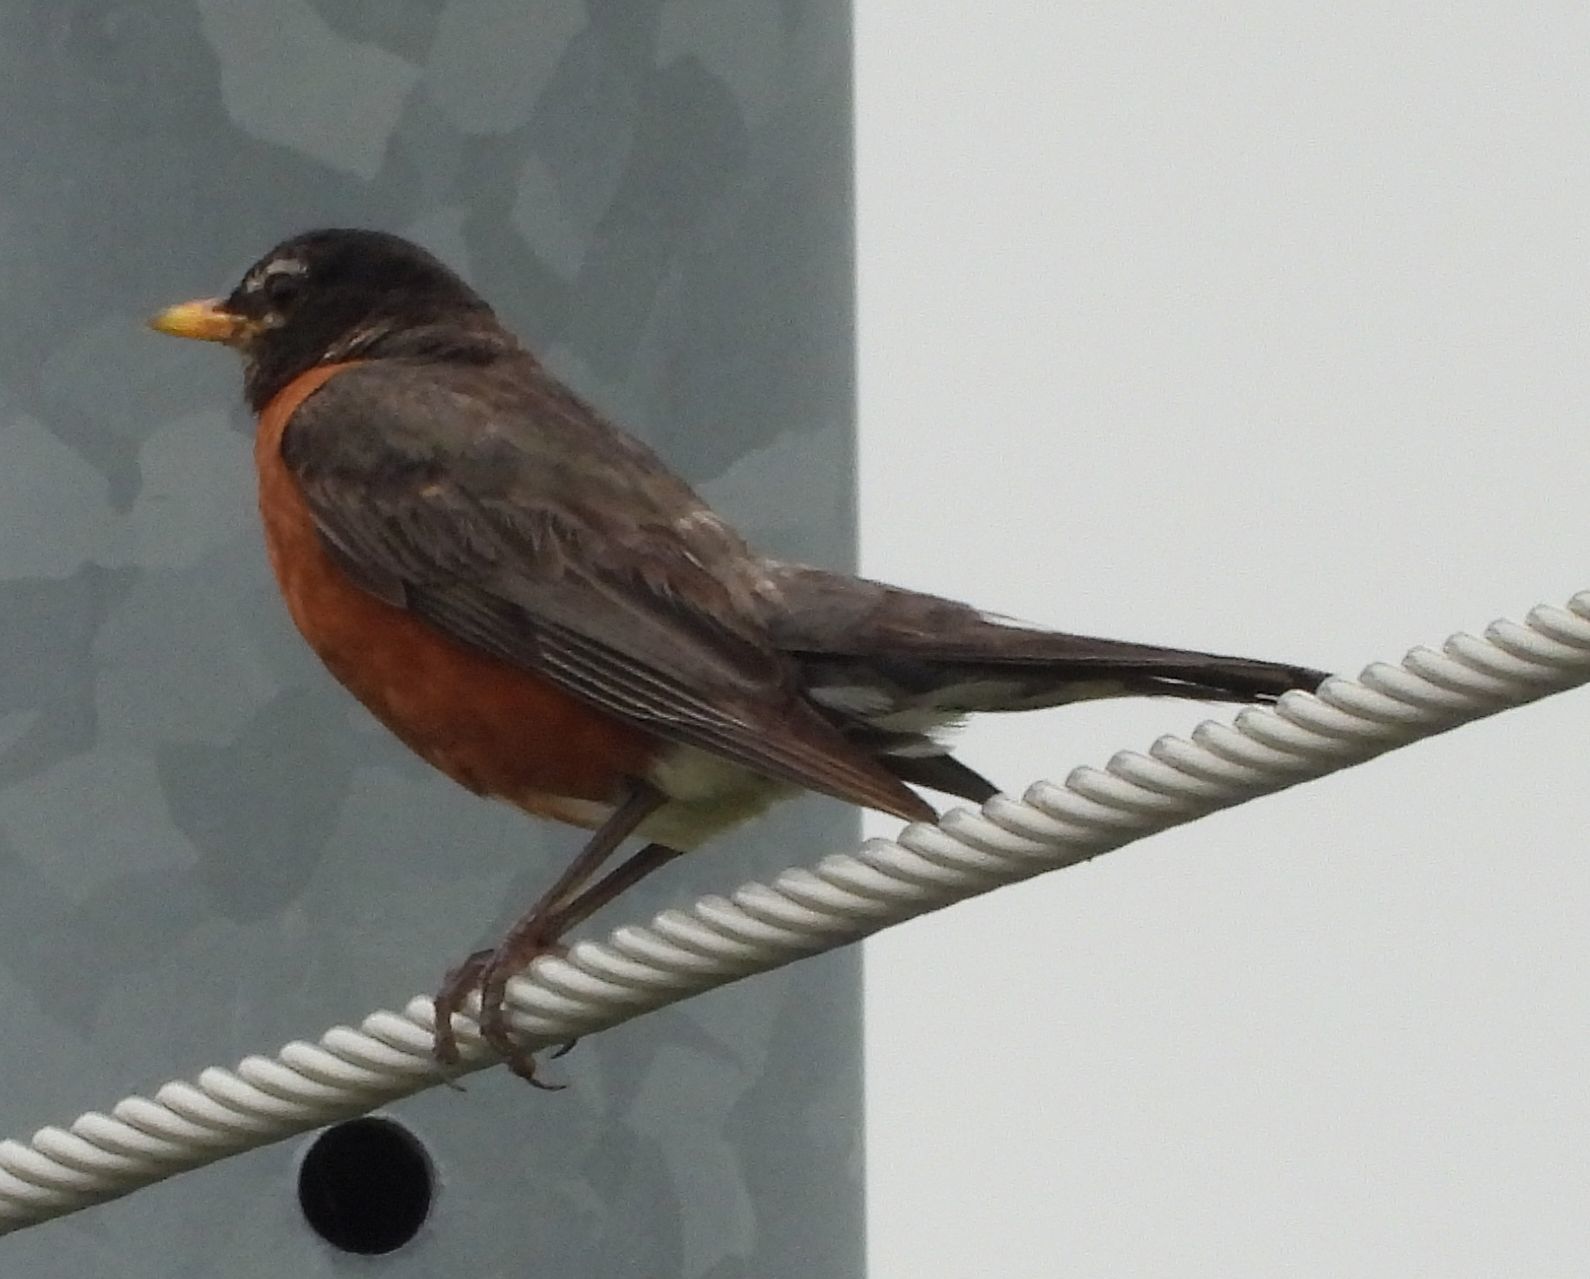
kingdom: Animalia
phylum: Chordata
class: Aves
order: Passeriformes
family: Turdidae
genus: Turdus
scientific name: Turdus migratorius
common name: American robin
